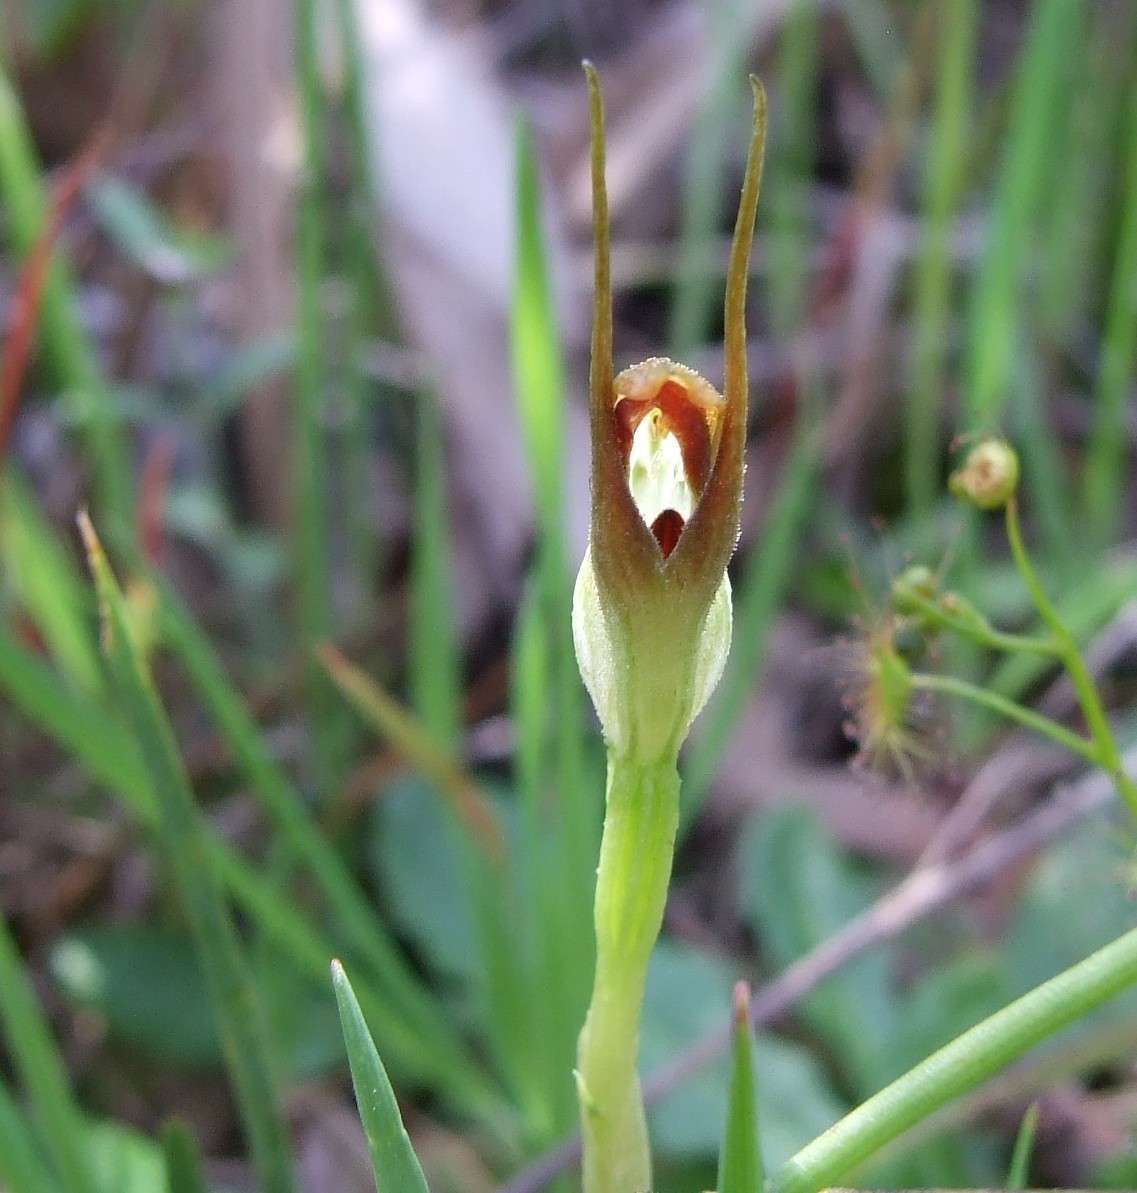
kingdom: Plantae
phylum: Tracheophyta
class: Liliopsida
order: Asparagales
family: Orchidaceae
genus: Pterostylis
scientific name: Pterostylis pedunculata
